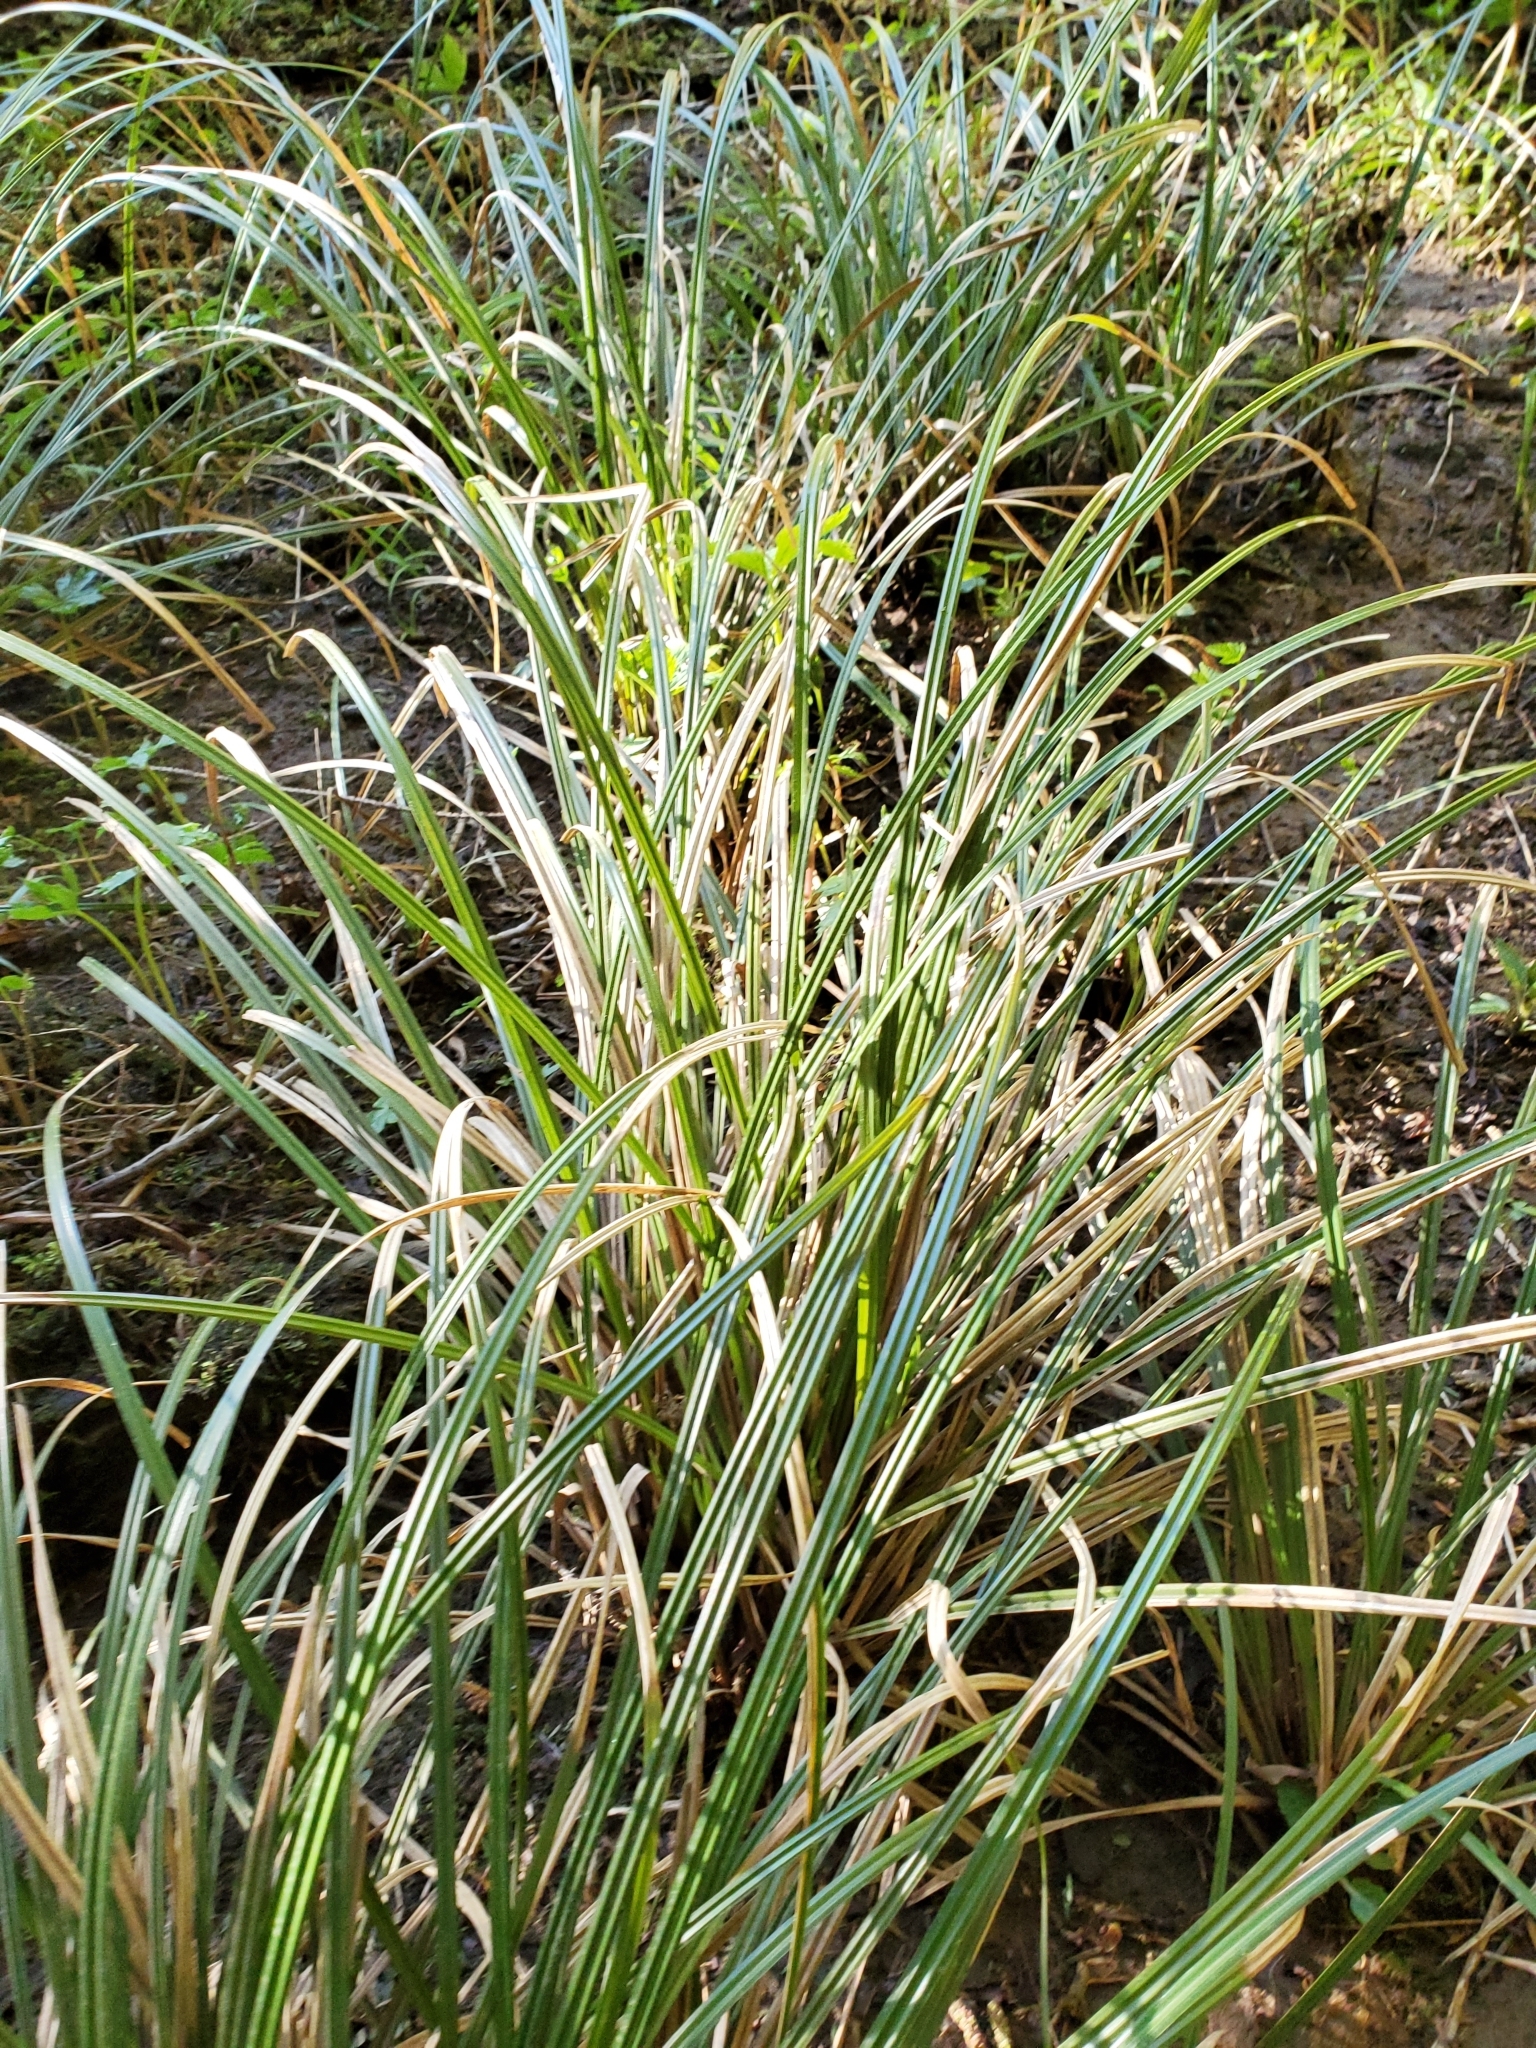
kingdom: Plantae
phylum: Tracheophyta
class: Liliopsida
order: Poales
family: Cyperaceae
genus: Carex
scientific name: Carex obnupta
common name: Slough sedge
